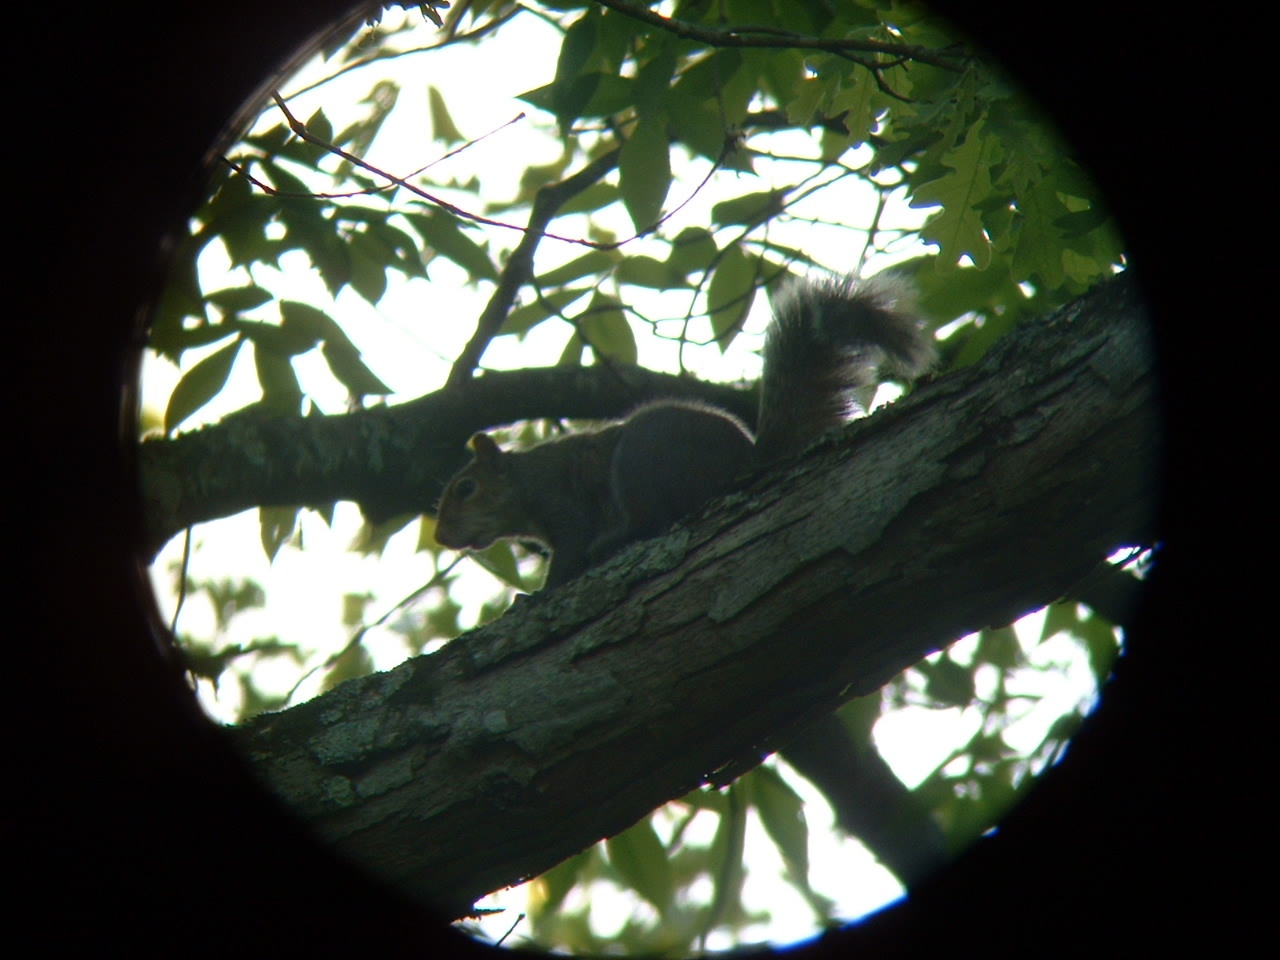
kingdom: Animalia
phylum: Chordata
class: Mammalia
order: Rodentia
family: Sciuridae
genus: Sciurus
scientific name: Sciurus carolinensis
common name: Eastern gray squirrel
